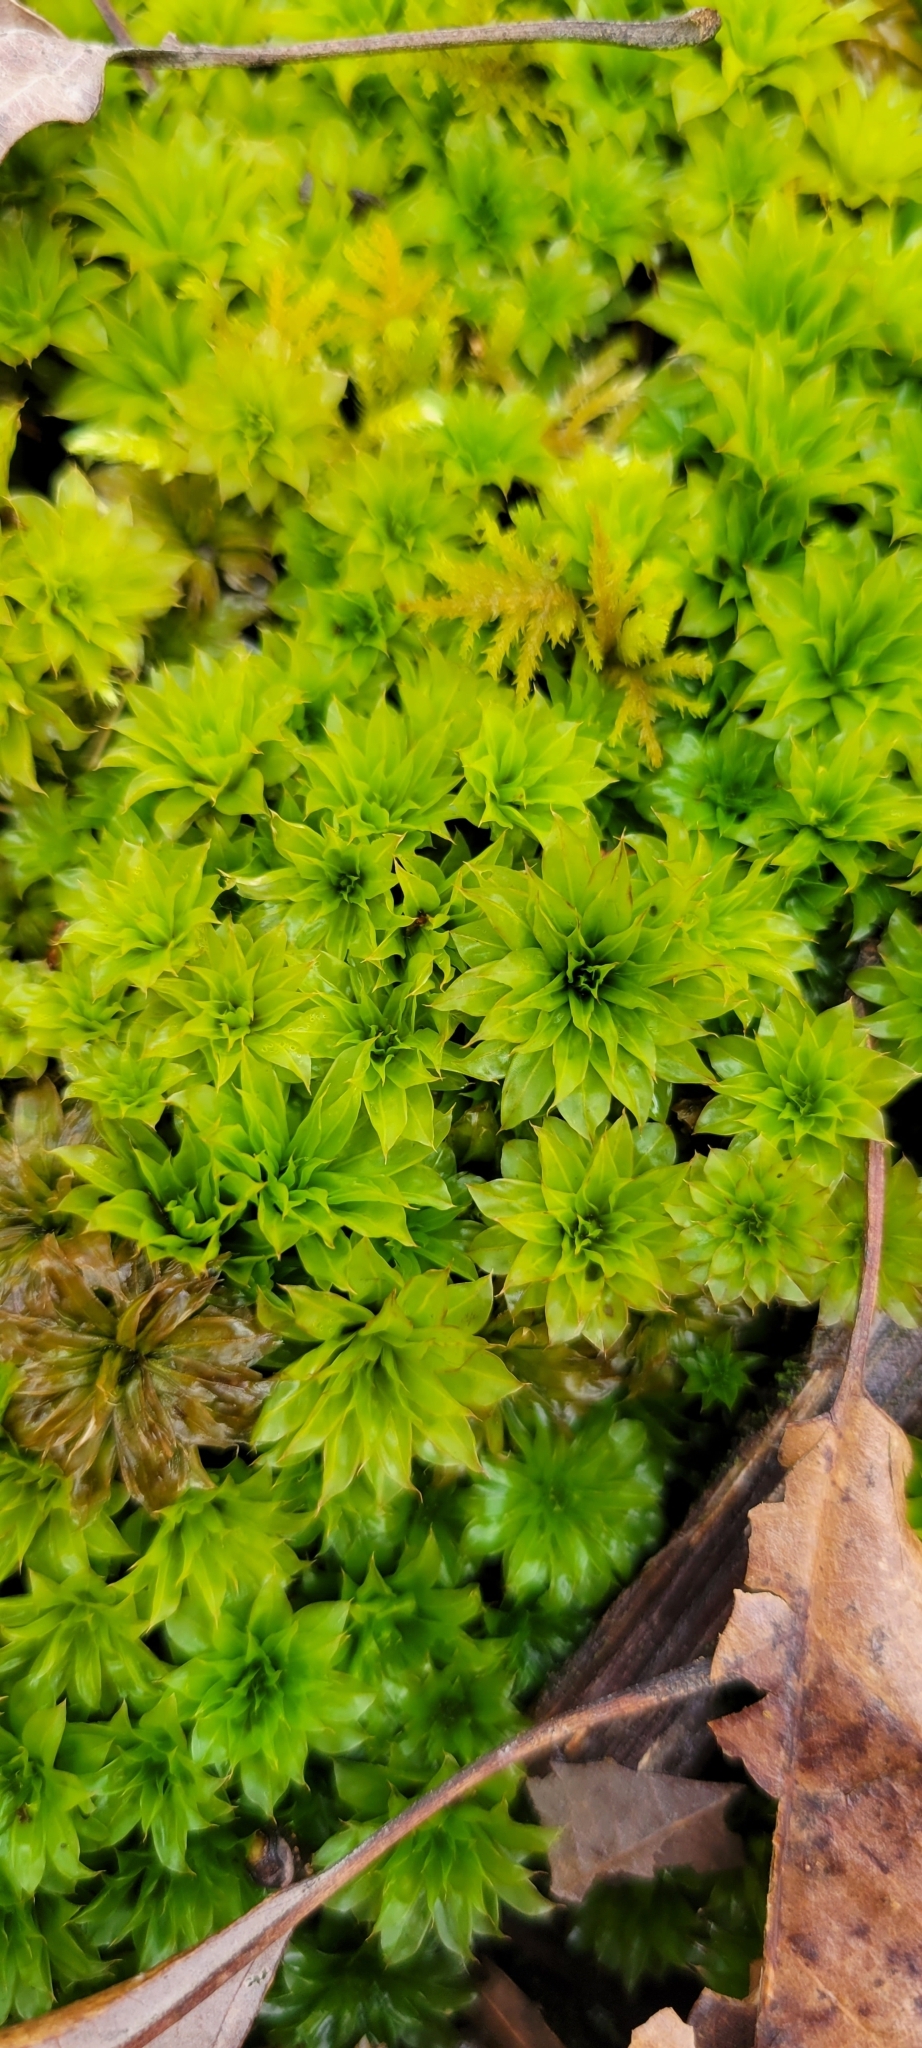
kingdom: Plantae
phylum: Bryophyta
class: Bryopsida
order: Bryales
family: Bryaceae
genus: Rhodobryum
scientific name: Rhodobryum ontariense
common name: Ontario rhodobryum moss
